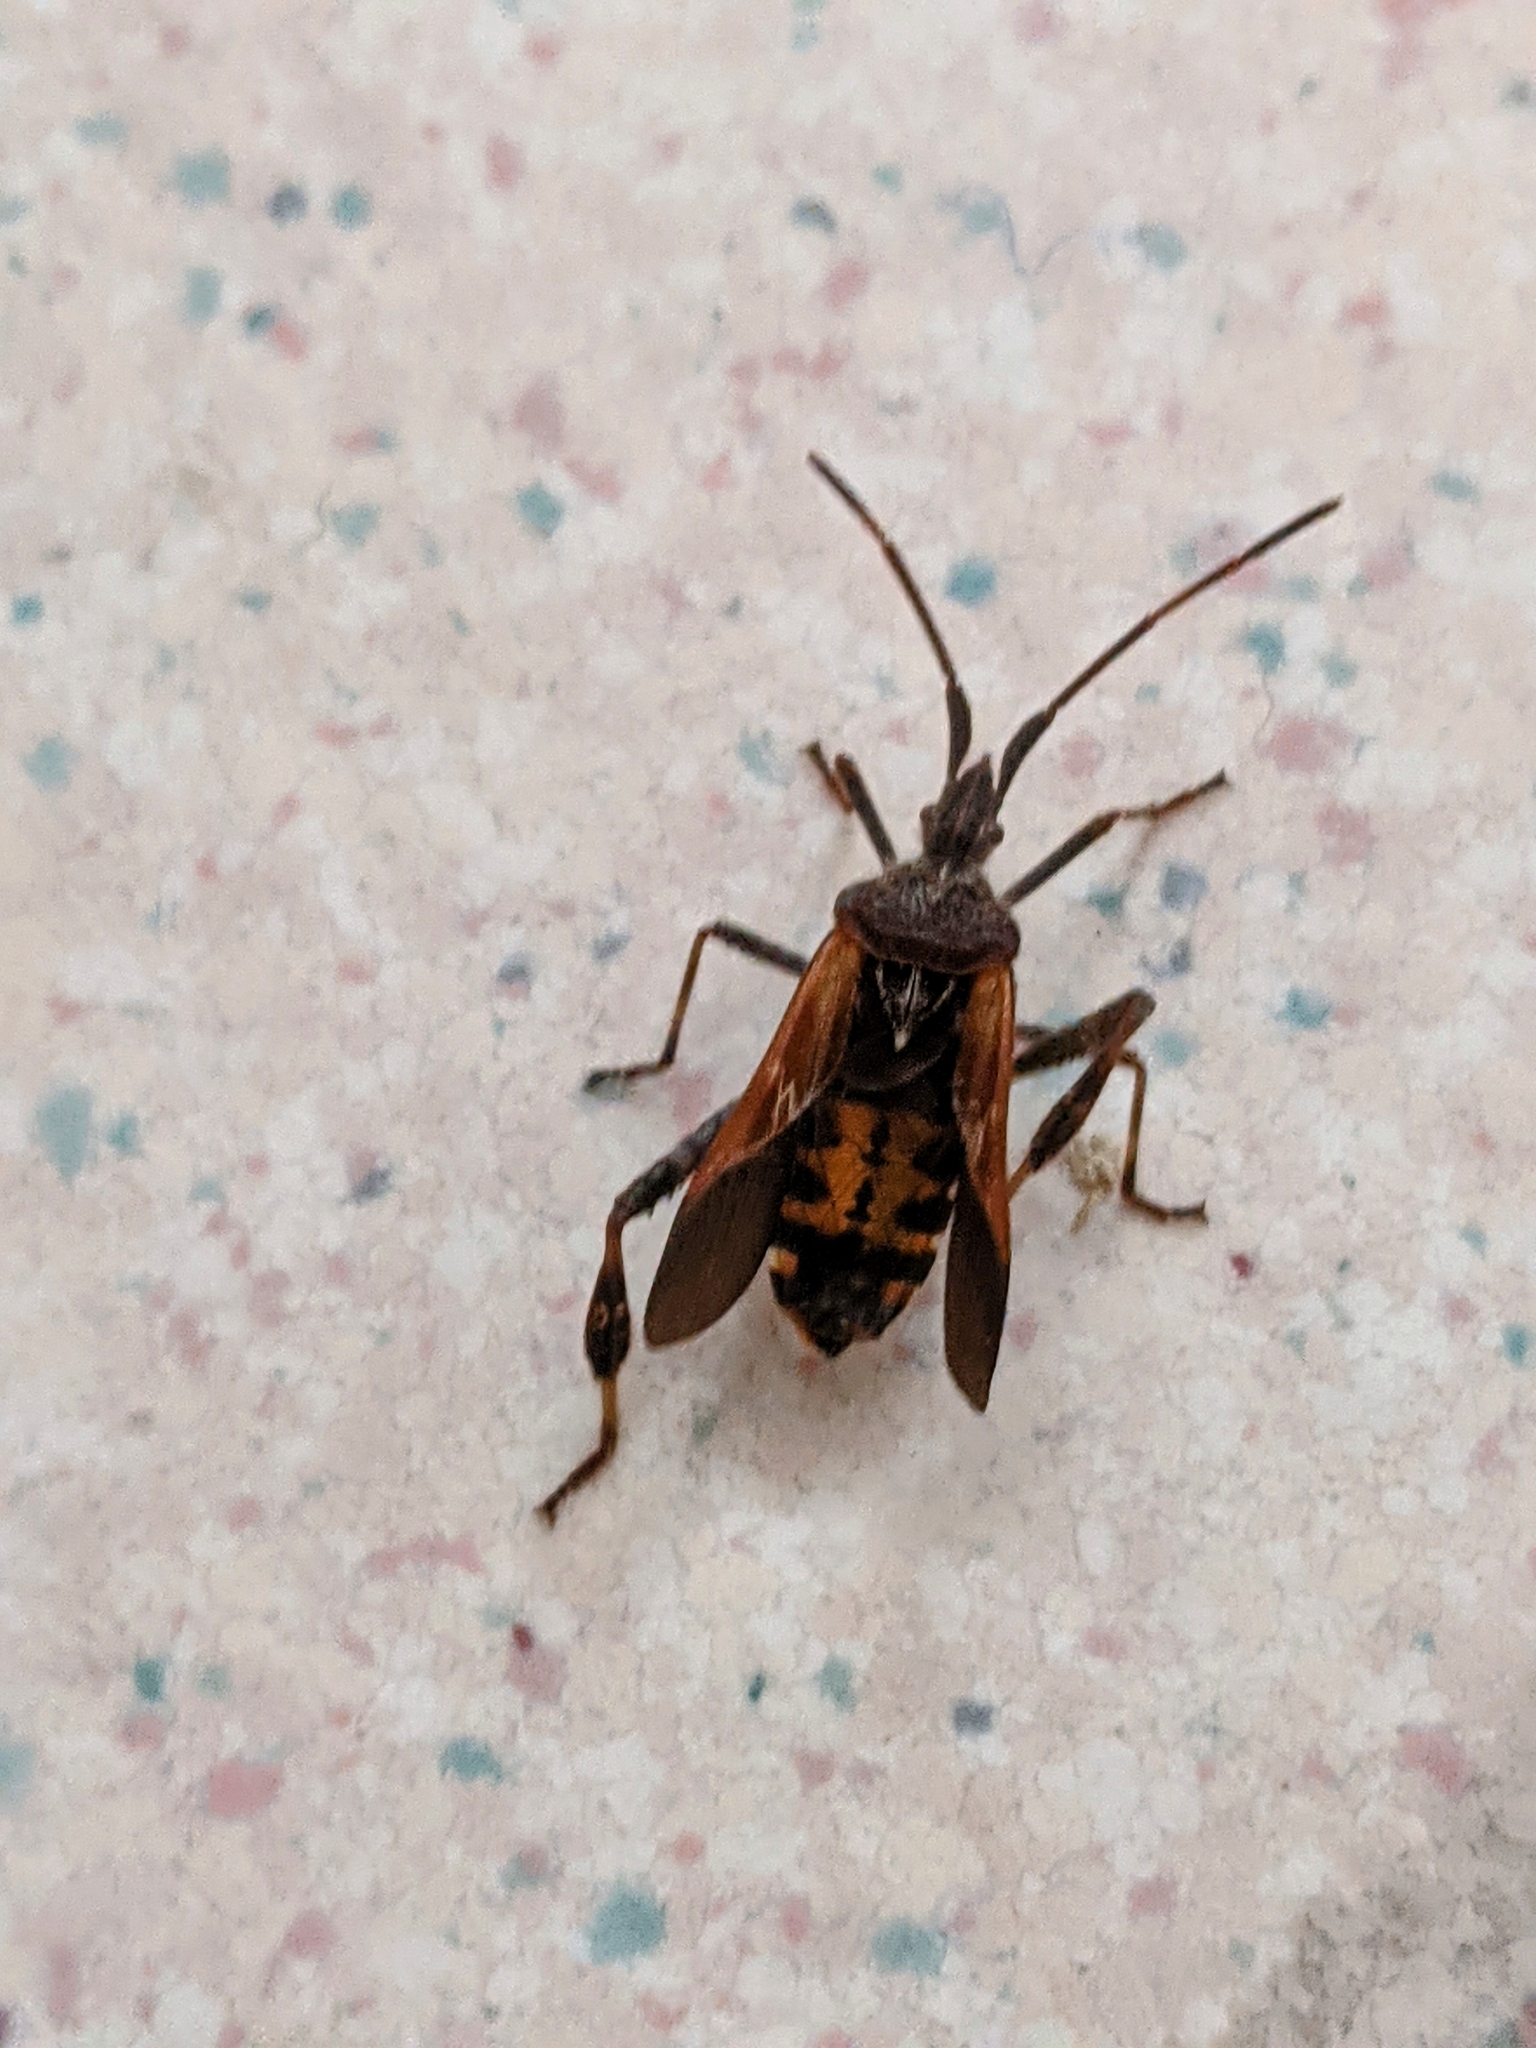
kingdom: Animalia
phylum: Arthropoda
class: Insecta
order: Hemiptera
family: Coreidae
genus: Leptoglossus
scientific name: Leptoglossus occidentalis
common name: Western conifer-seed bug
